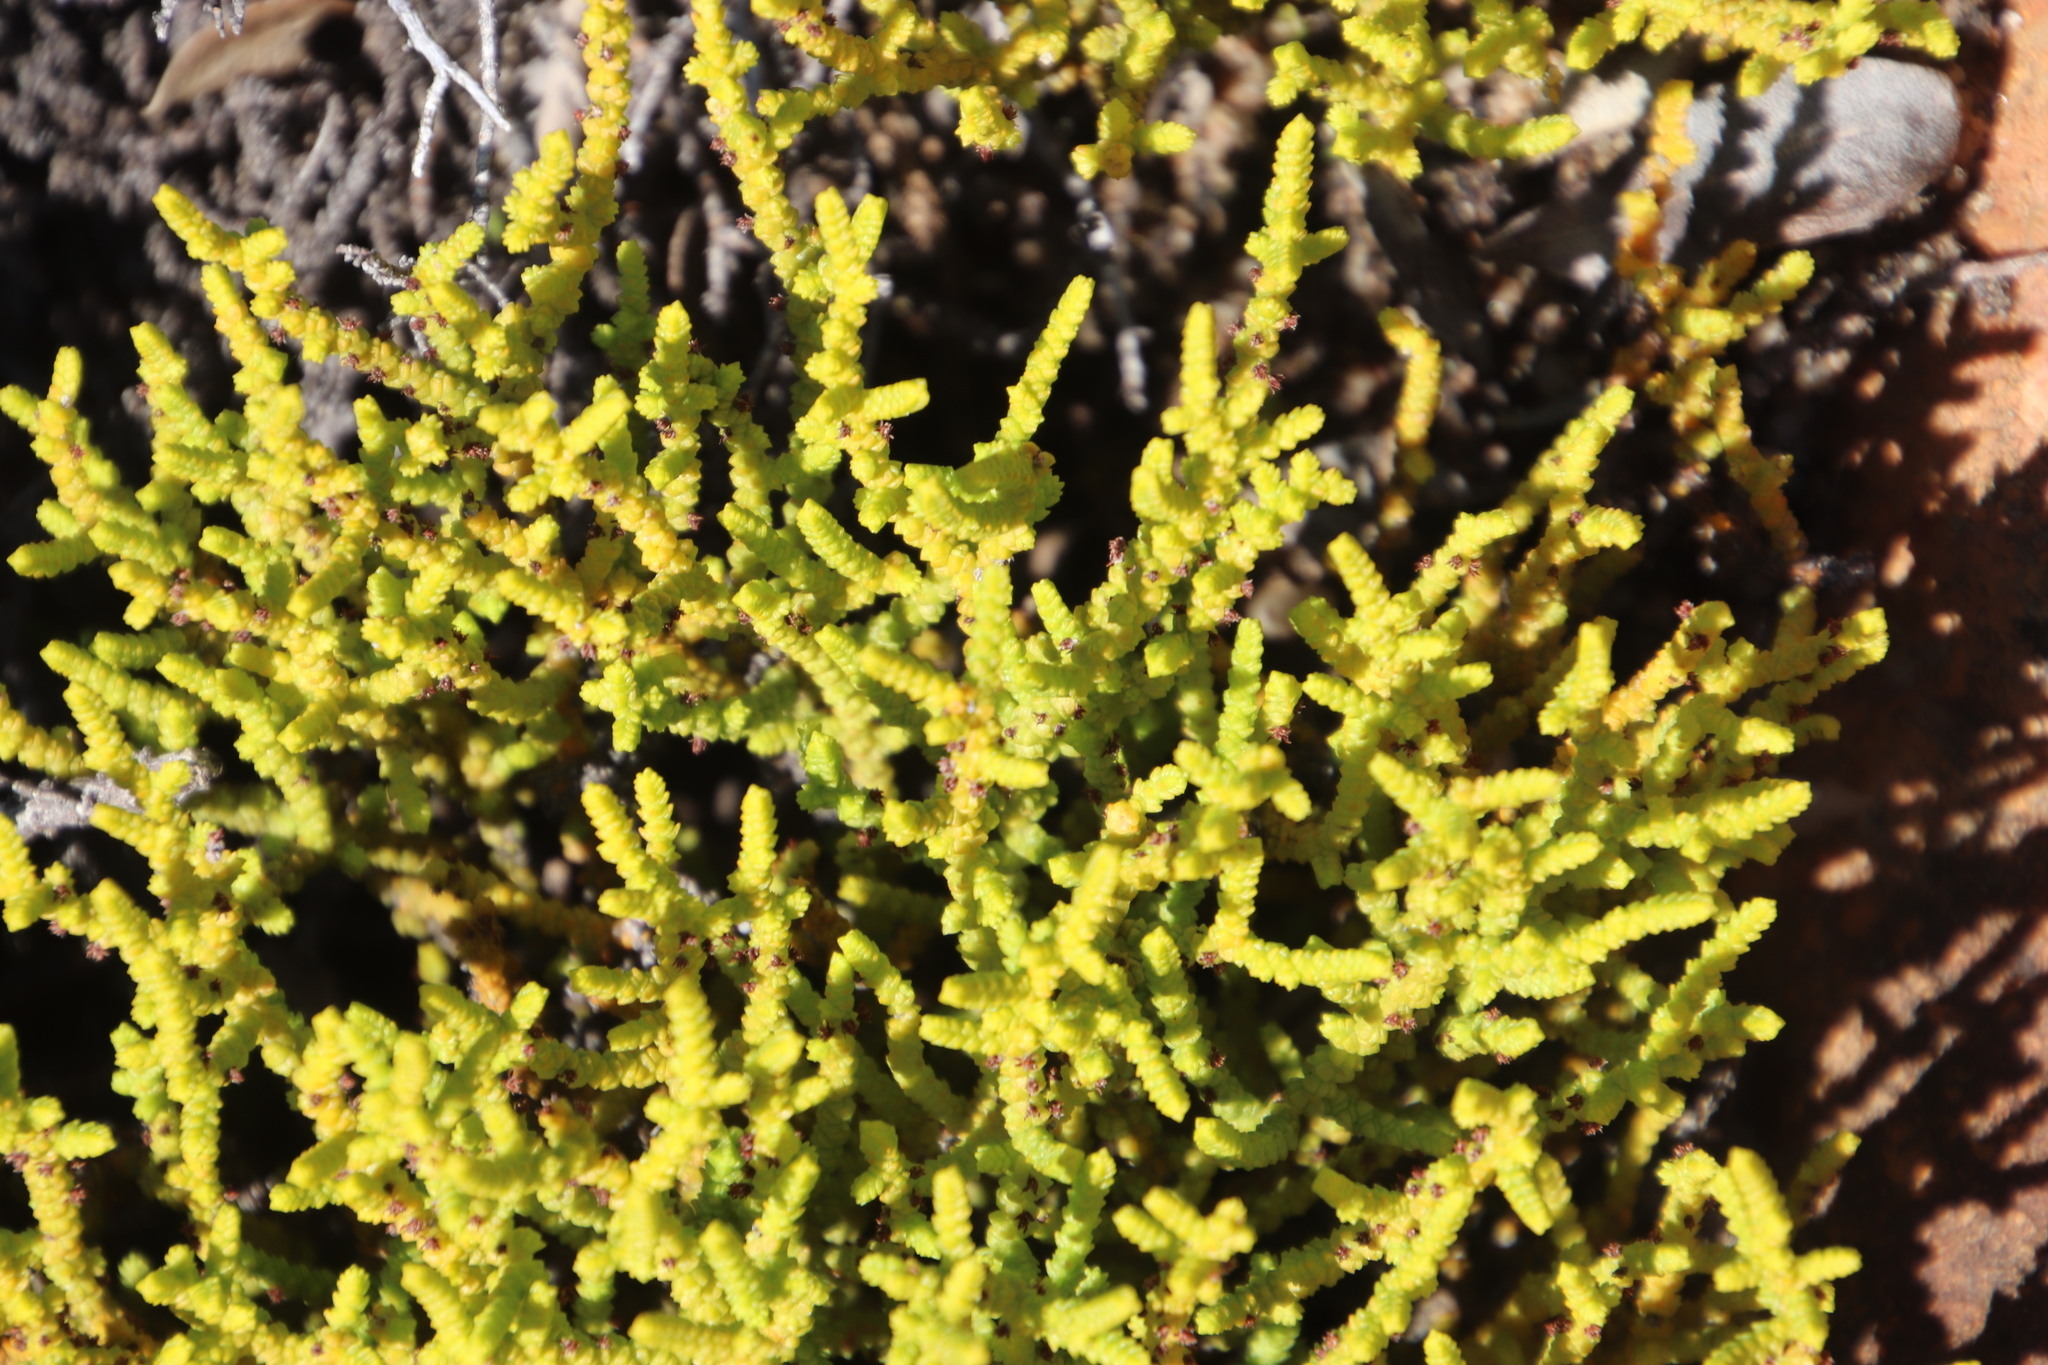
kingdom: Plantae
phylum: Tracheophyta
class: Magnoliopsida
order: Saxifragales
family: Crassulaceae
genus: Crassula
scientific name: Crassula muscosa
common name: Toy-cypress
